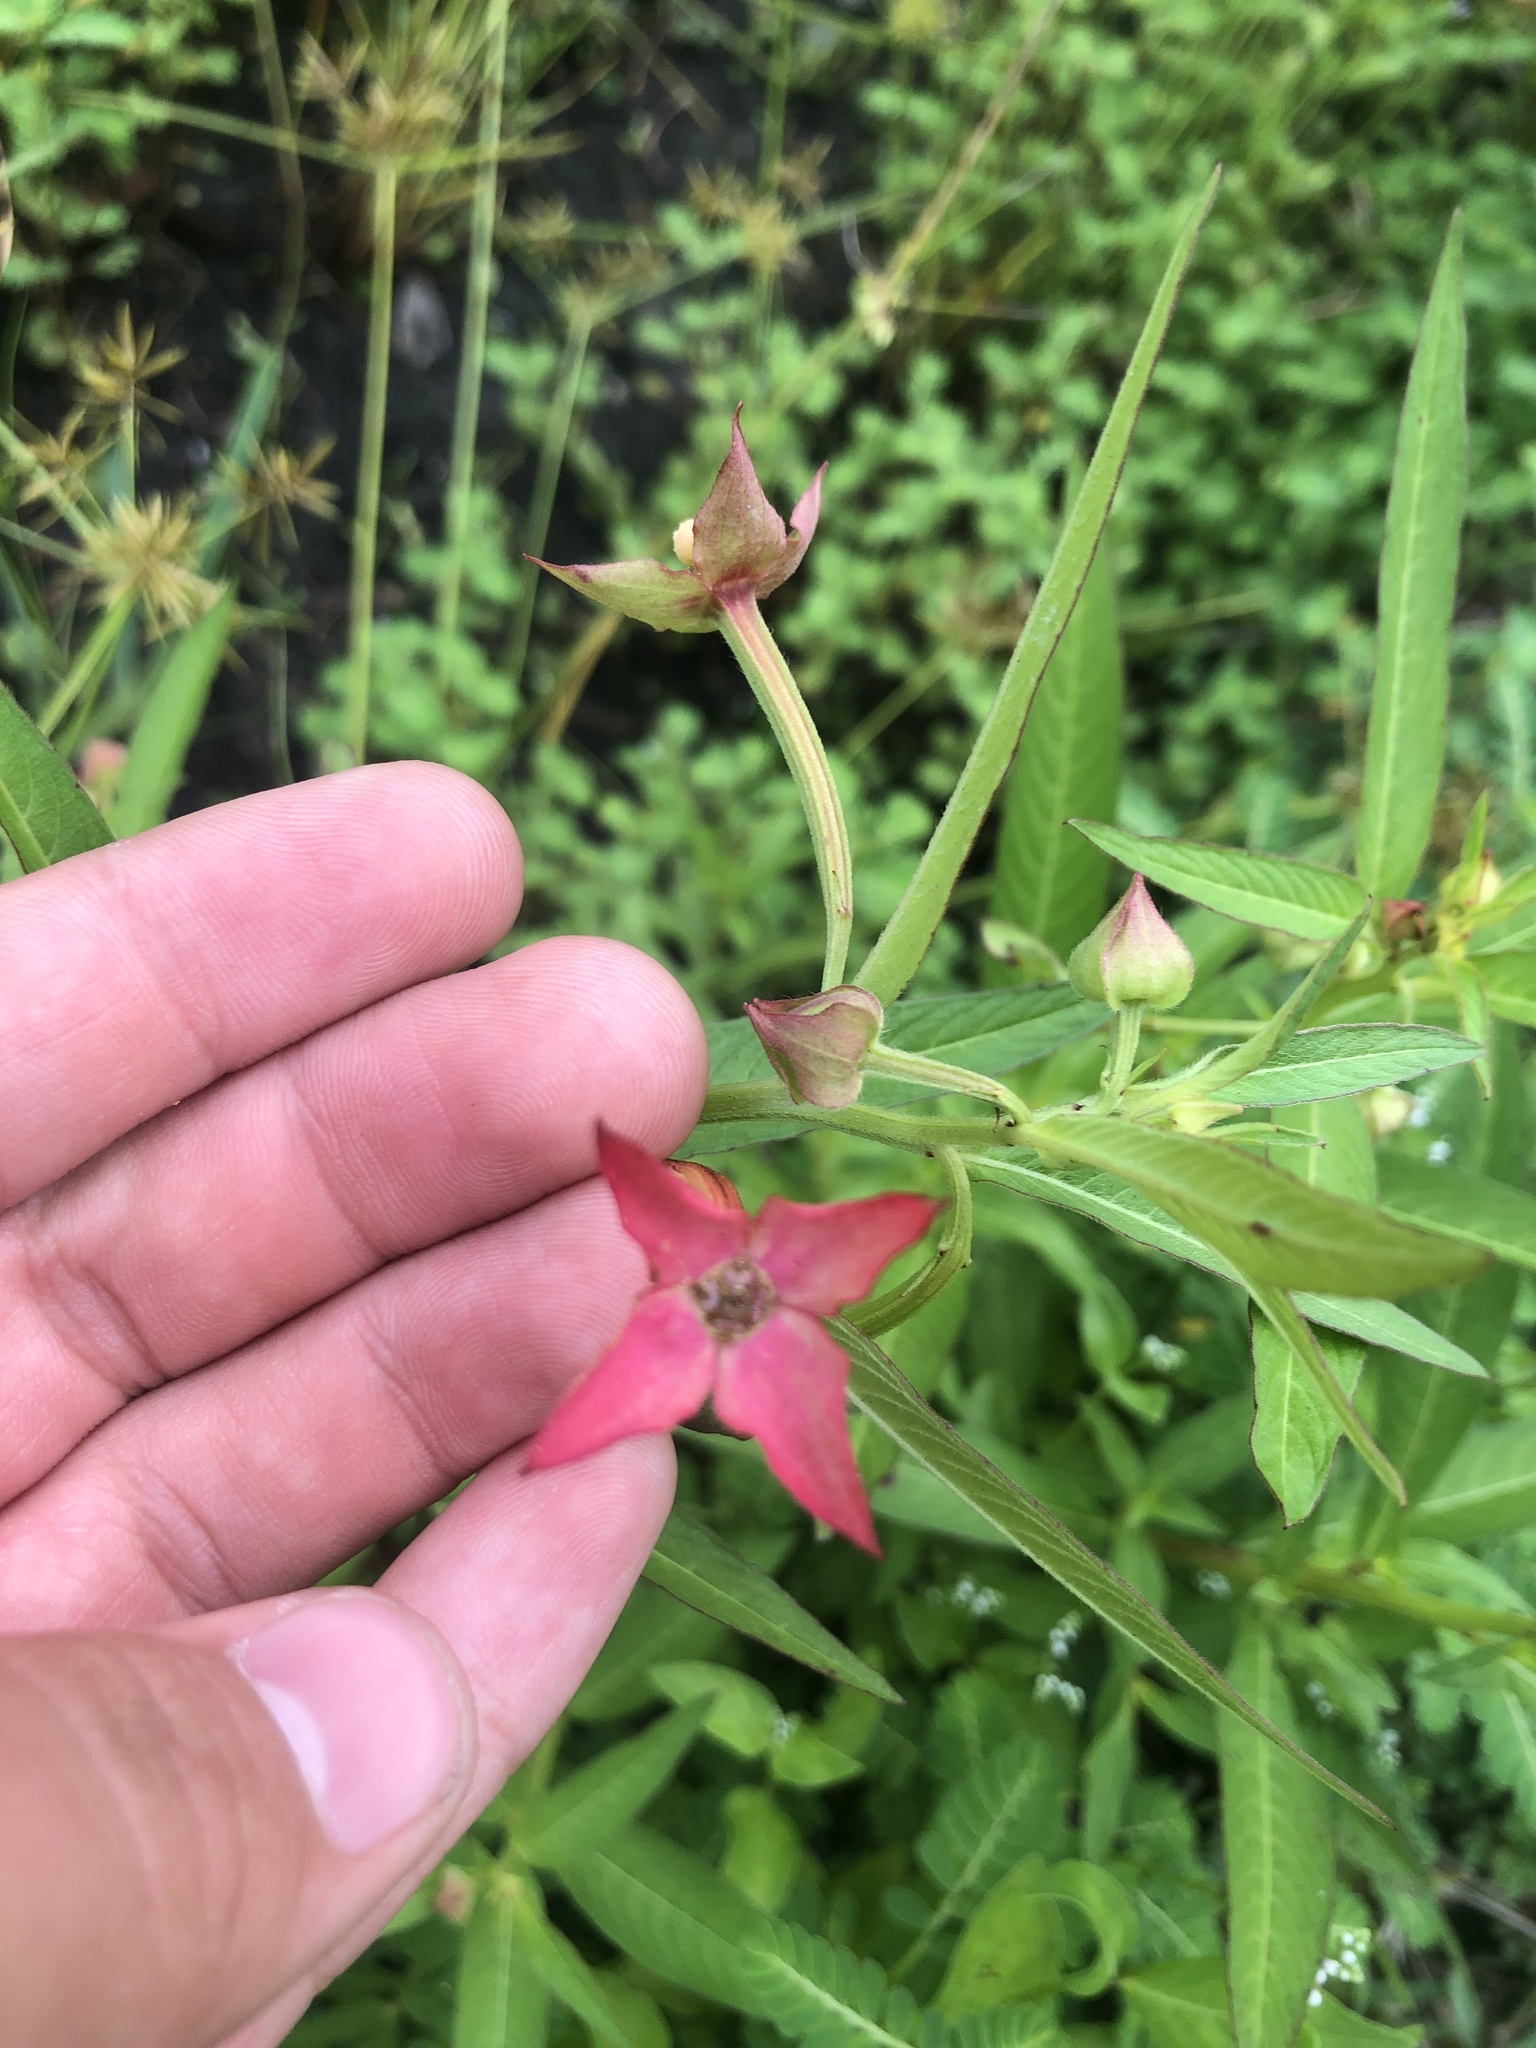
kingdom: Plantae
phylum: Tracheophyta
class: Magnoliopsida
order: Myrtales
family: Onagraceae
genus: Ludwigia
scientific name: Ludwigia octovalvis
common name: Water-primrose
